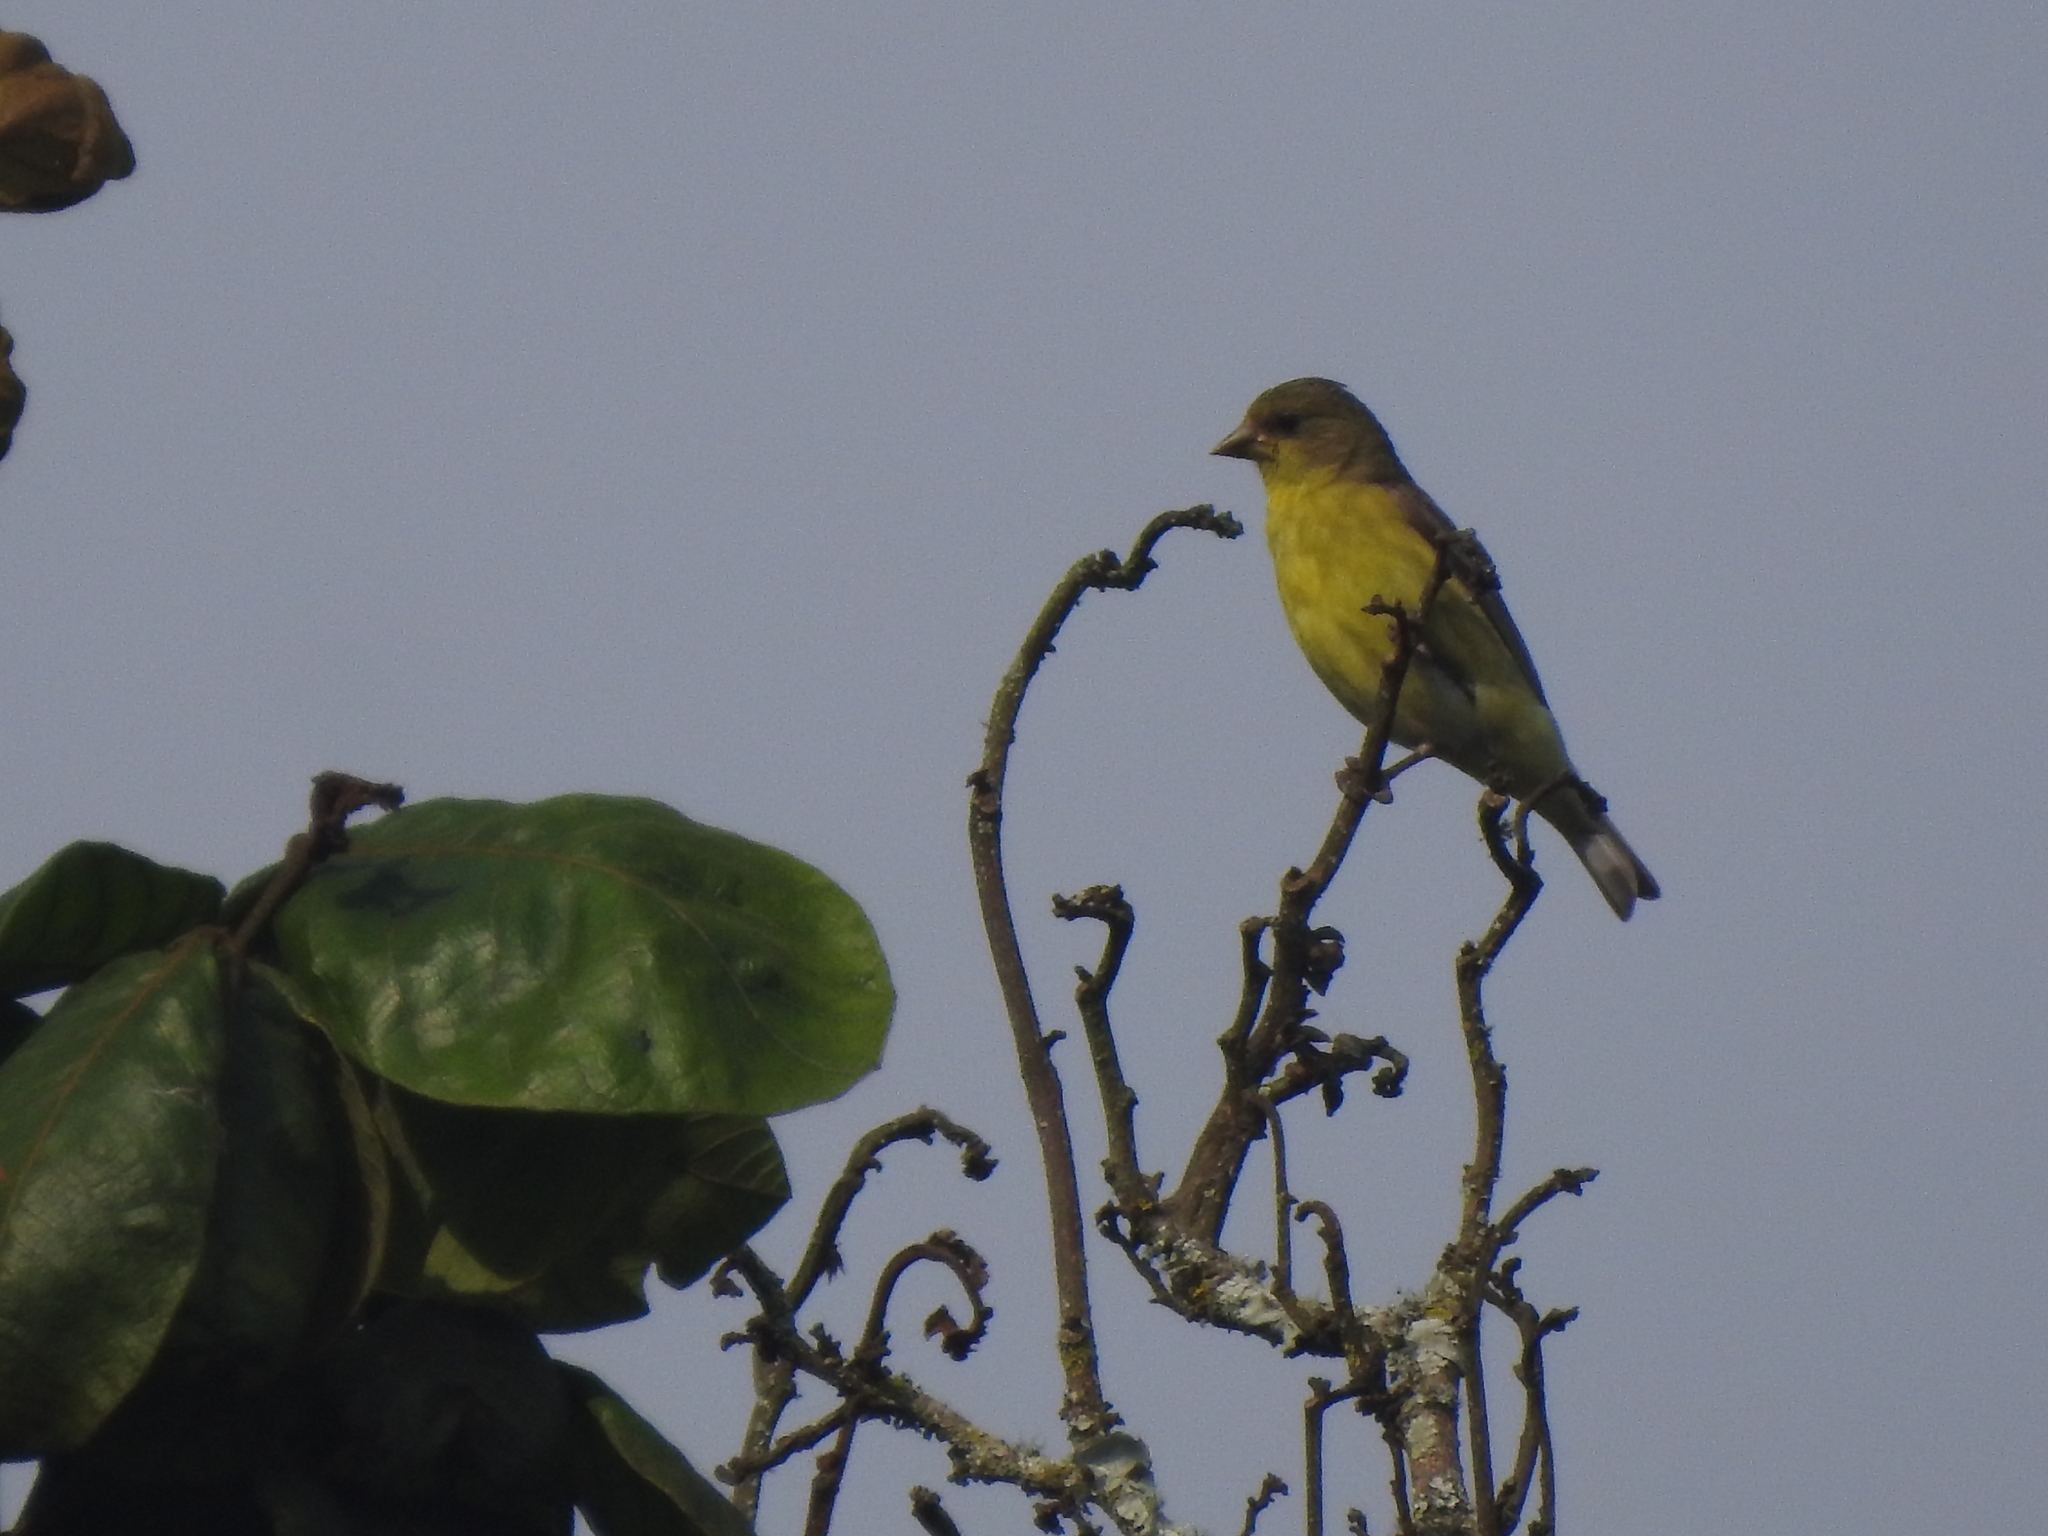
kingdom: Animalia
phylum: Chordata
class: Aves
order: Passeriformes
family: Fringillidae
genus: Spinus
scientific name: Spinus psaltria
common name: Lesser goldfinch
